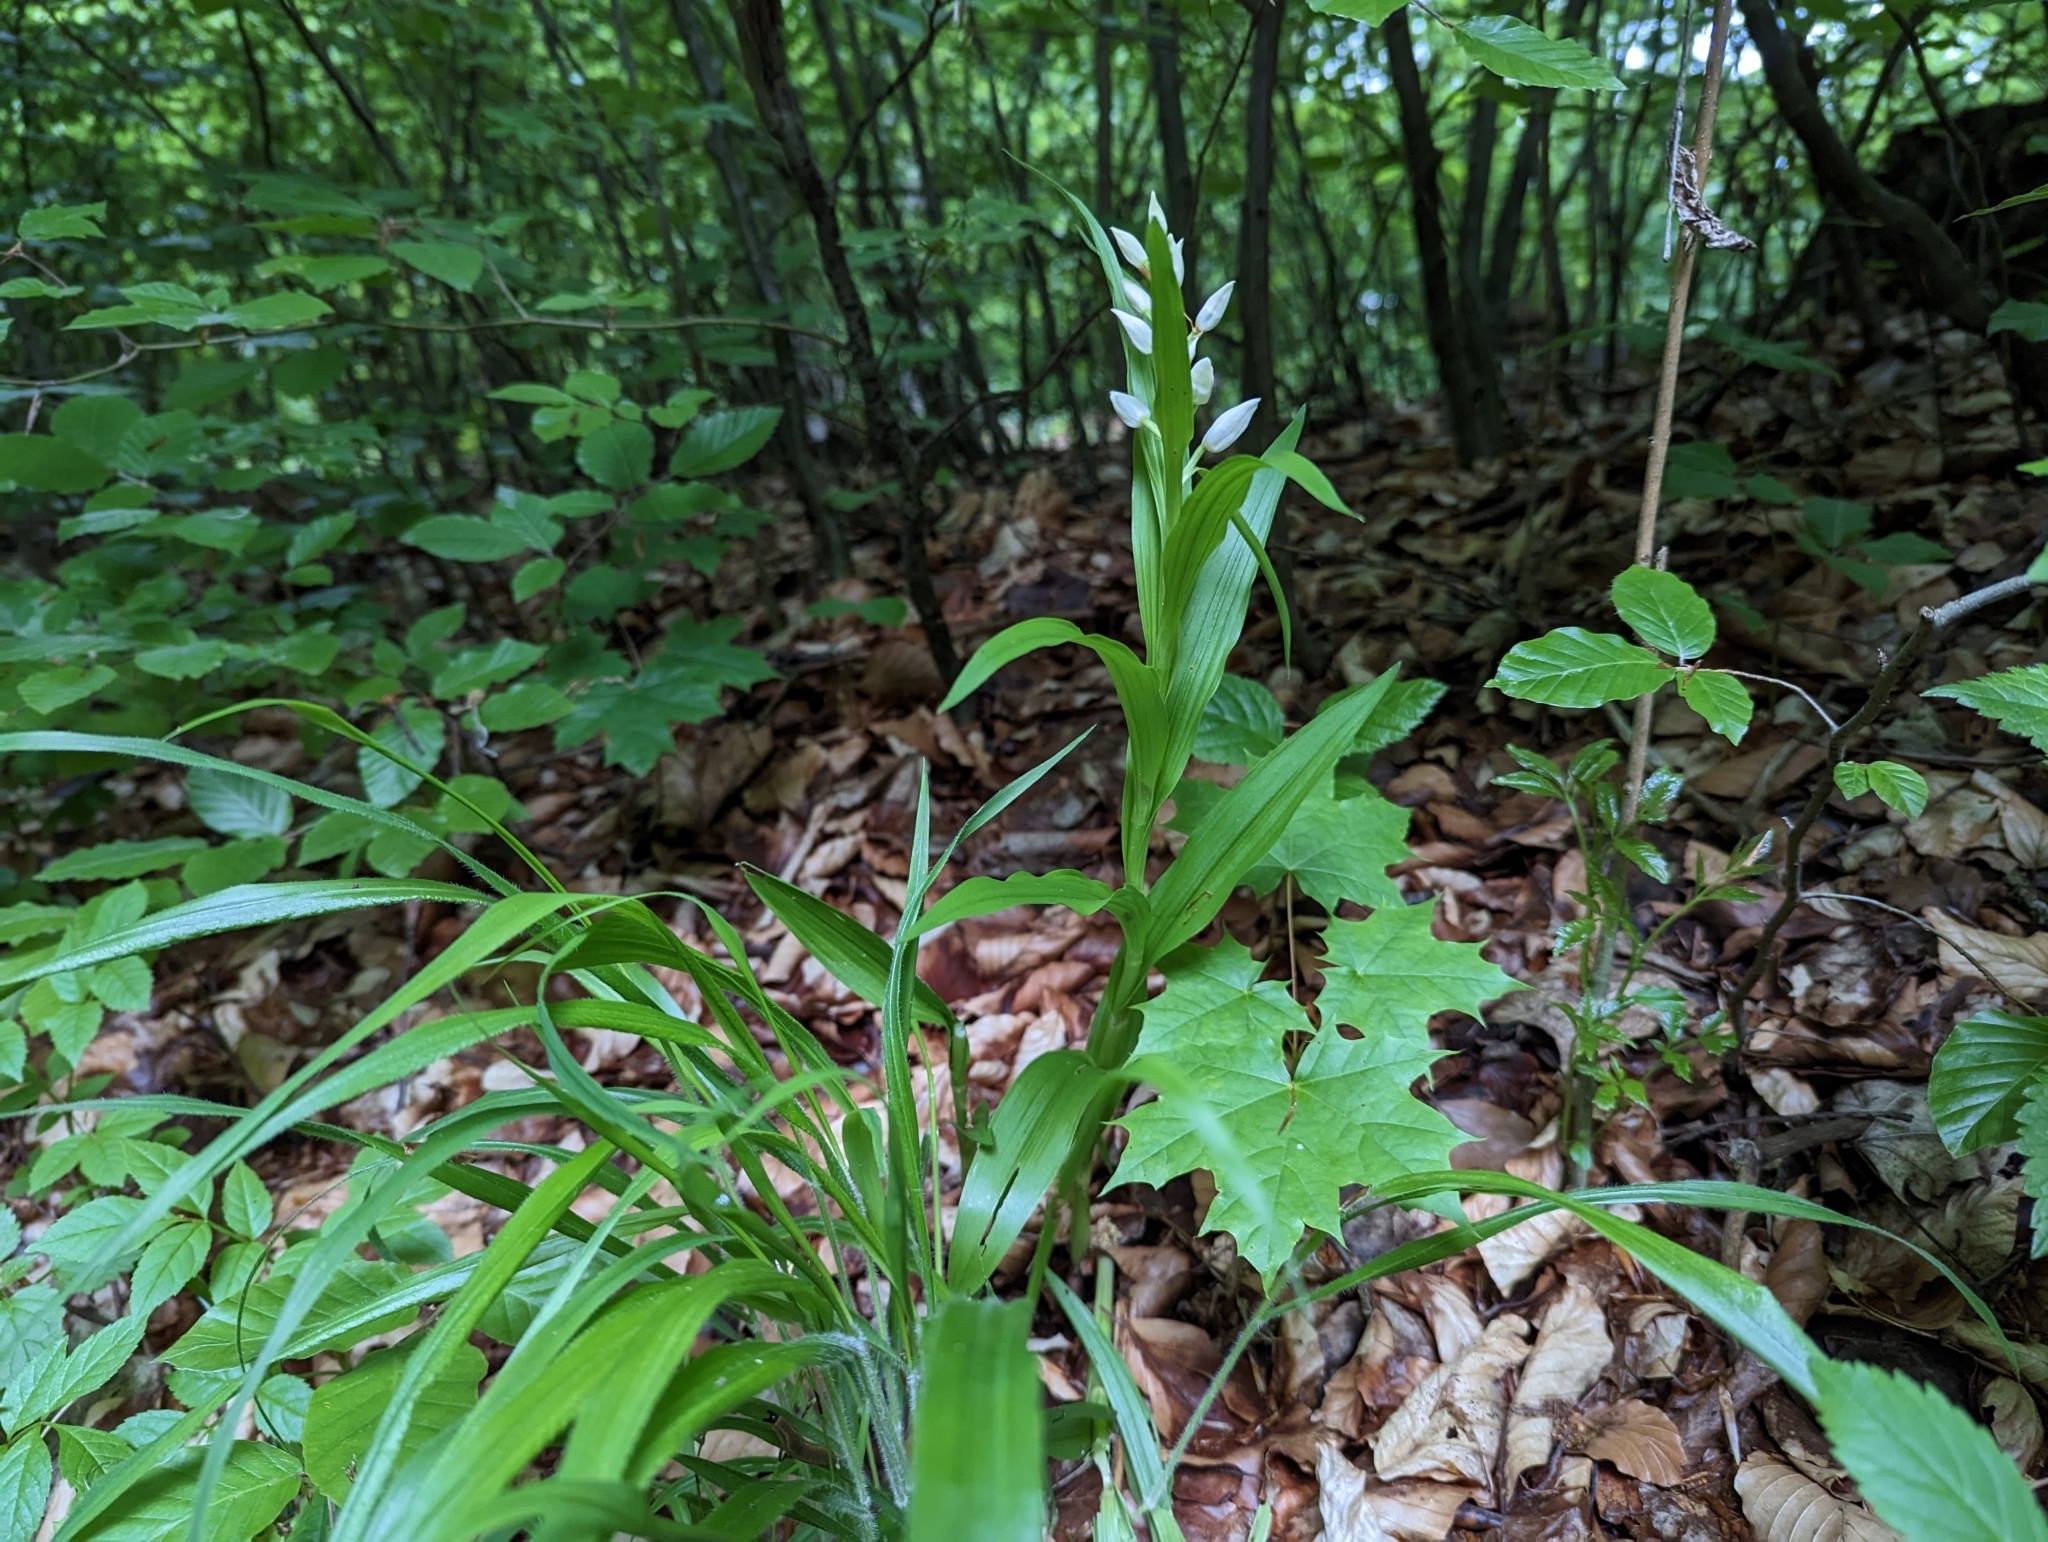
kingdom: Plantae
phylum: Tracheophyta
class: Liliopsida
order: Asparagales
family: Orchidaceae
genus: Cephalanthera
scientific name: Cephalanthera longifolia
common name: Narrow-leaved helleborine
